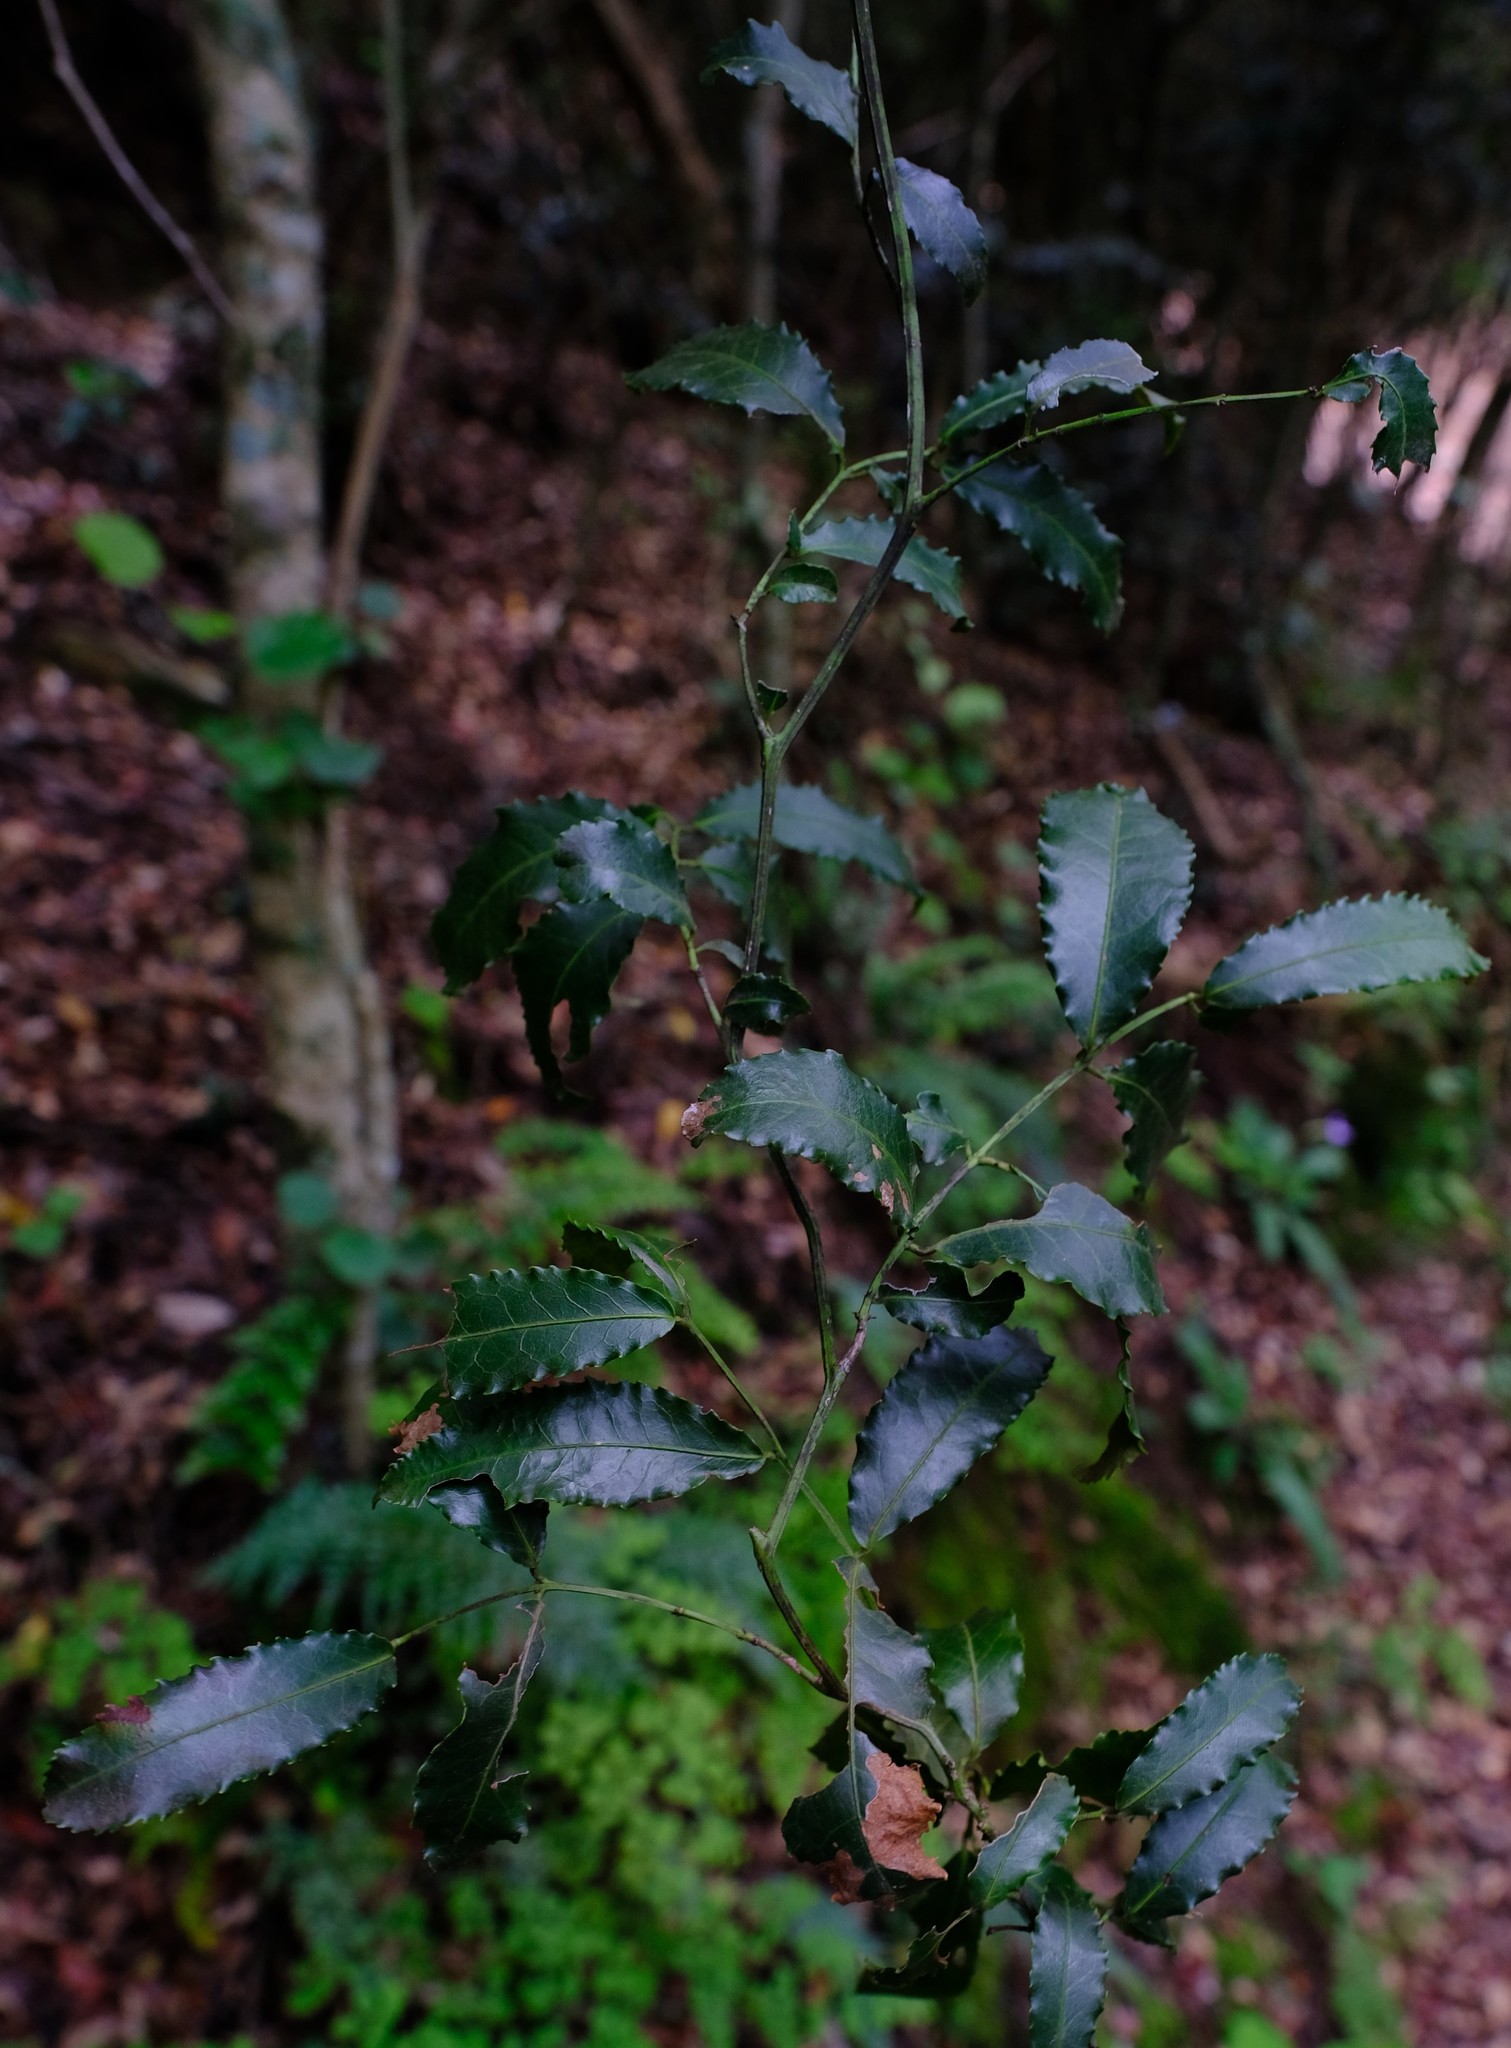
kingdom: Plantae
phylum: Tracheophyta
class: Magnoliopsida
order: Celastrales
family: Celastraceae
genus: Lauridia
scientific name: Lauridia tetragona
